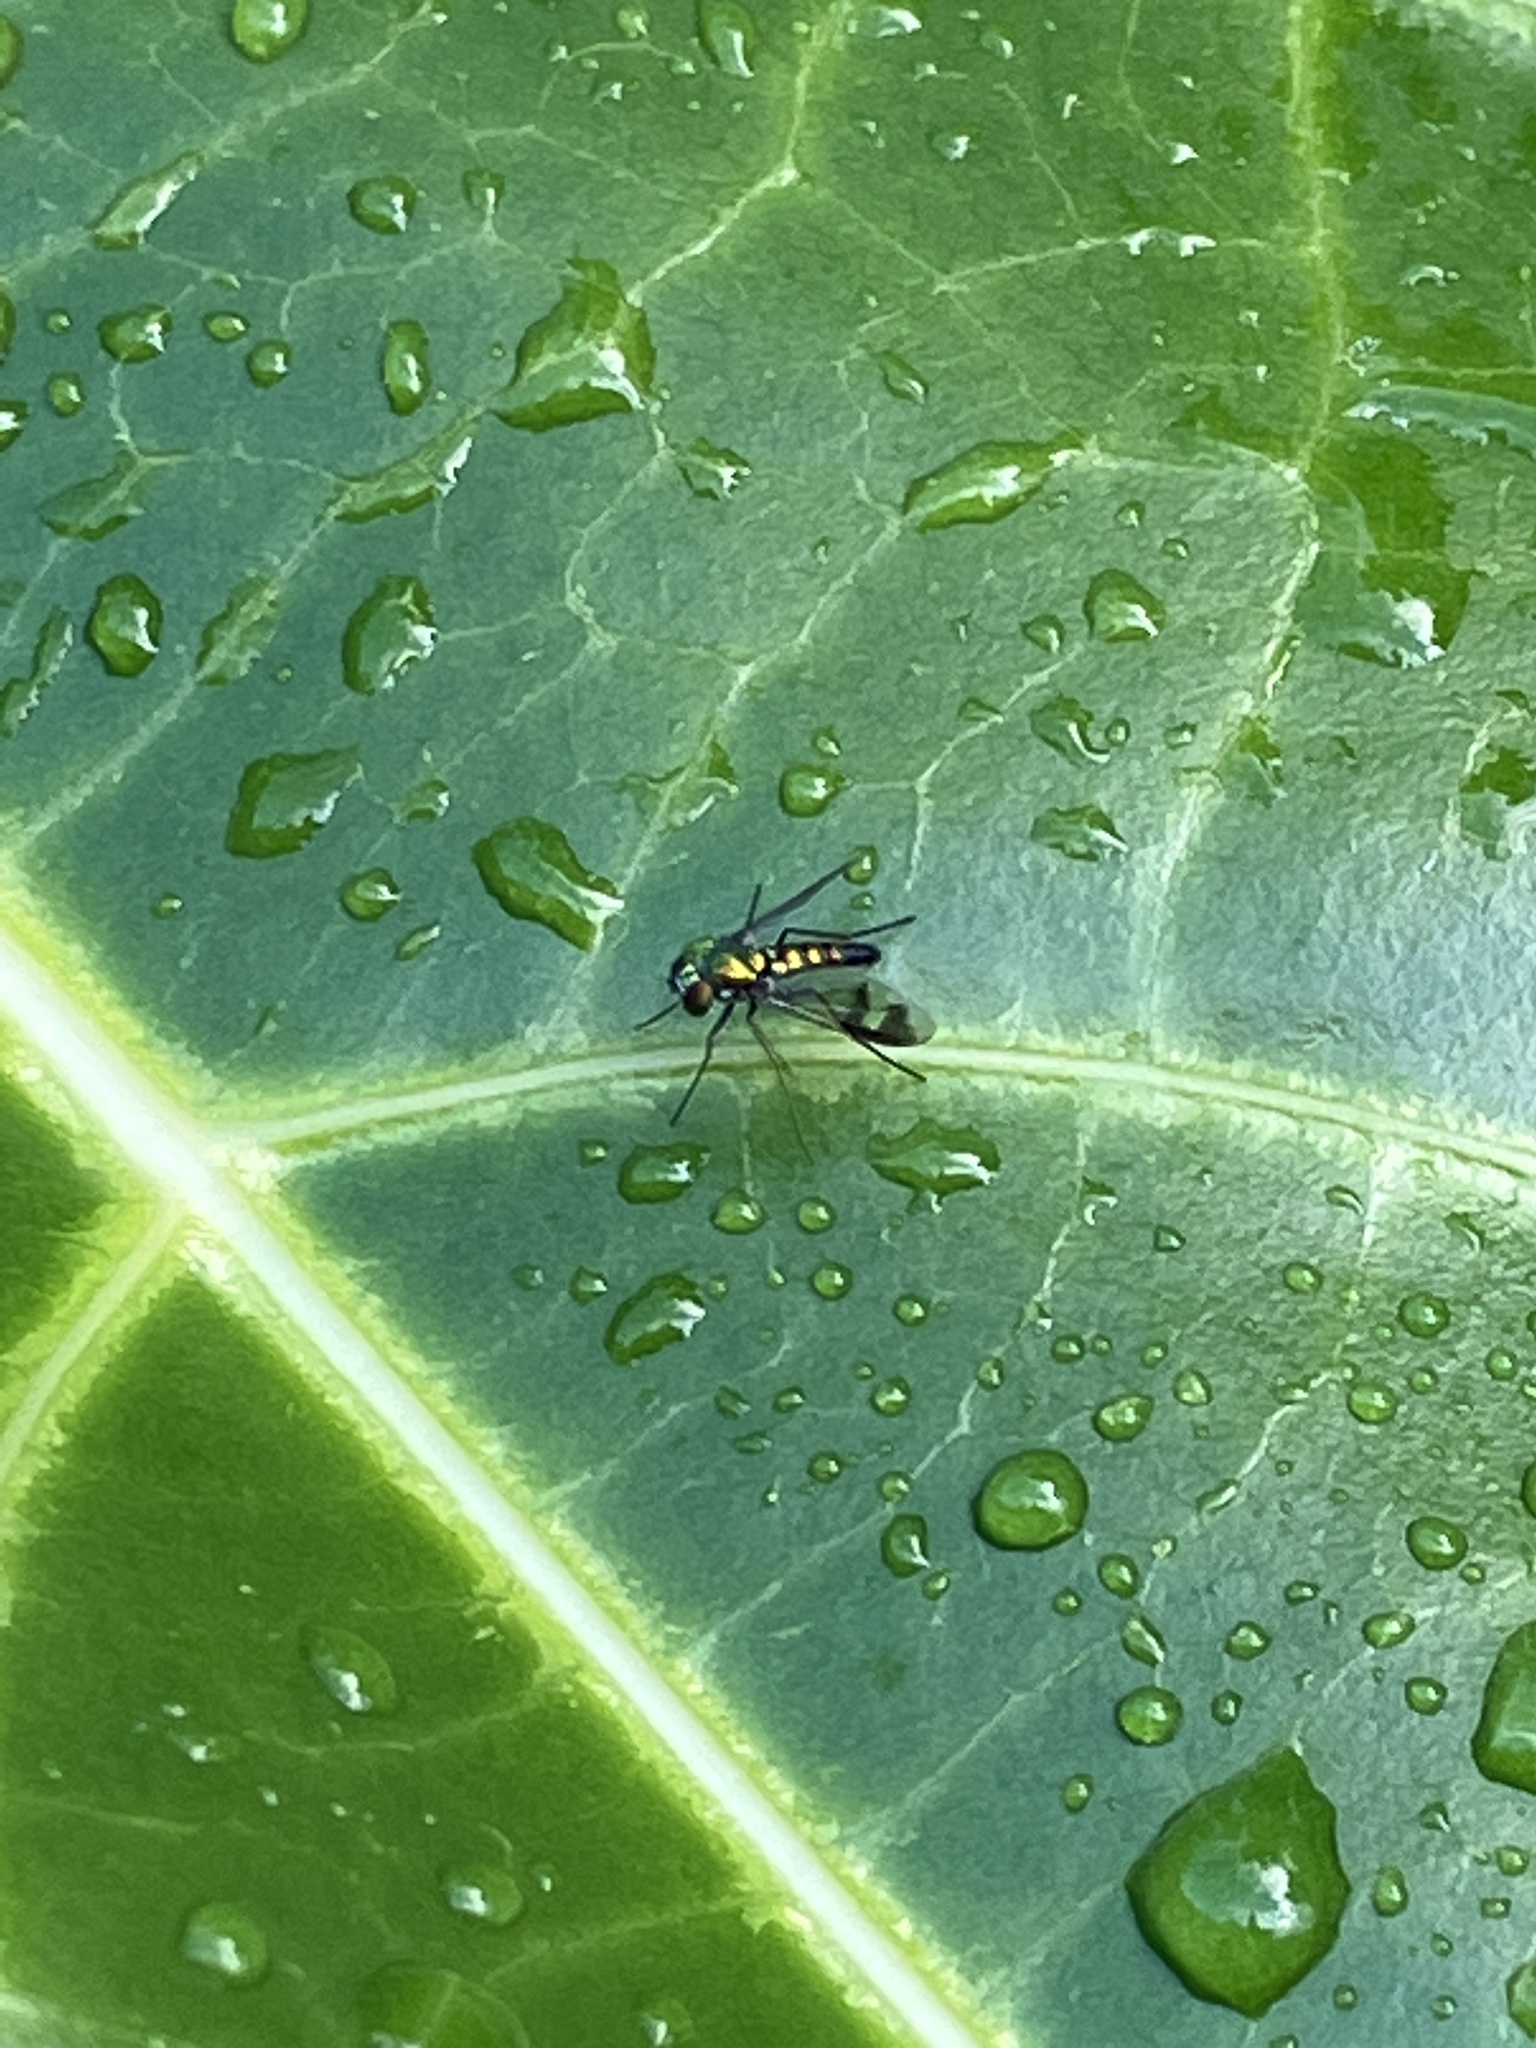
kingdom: Animalia
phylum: Arthropoda
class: Insecta
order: Diptera
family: Dolichopodidae
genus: Condylostylus
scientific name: Condylostylus quadricolor
